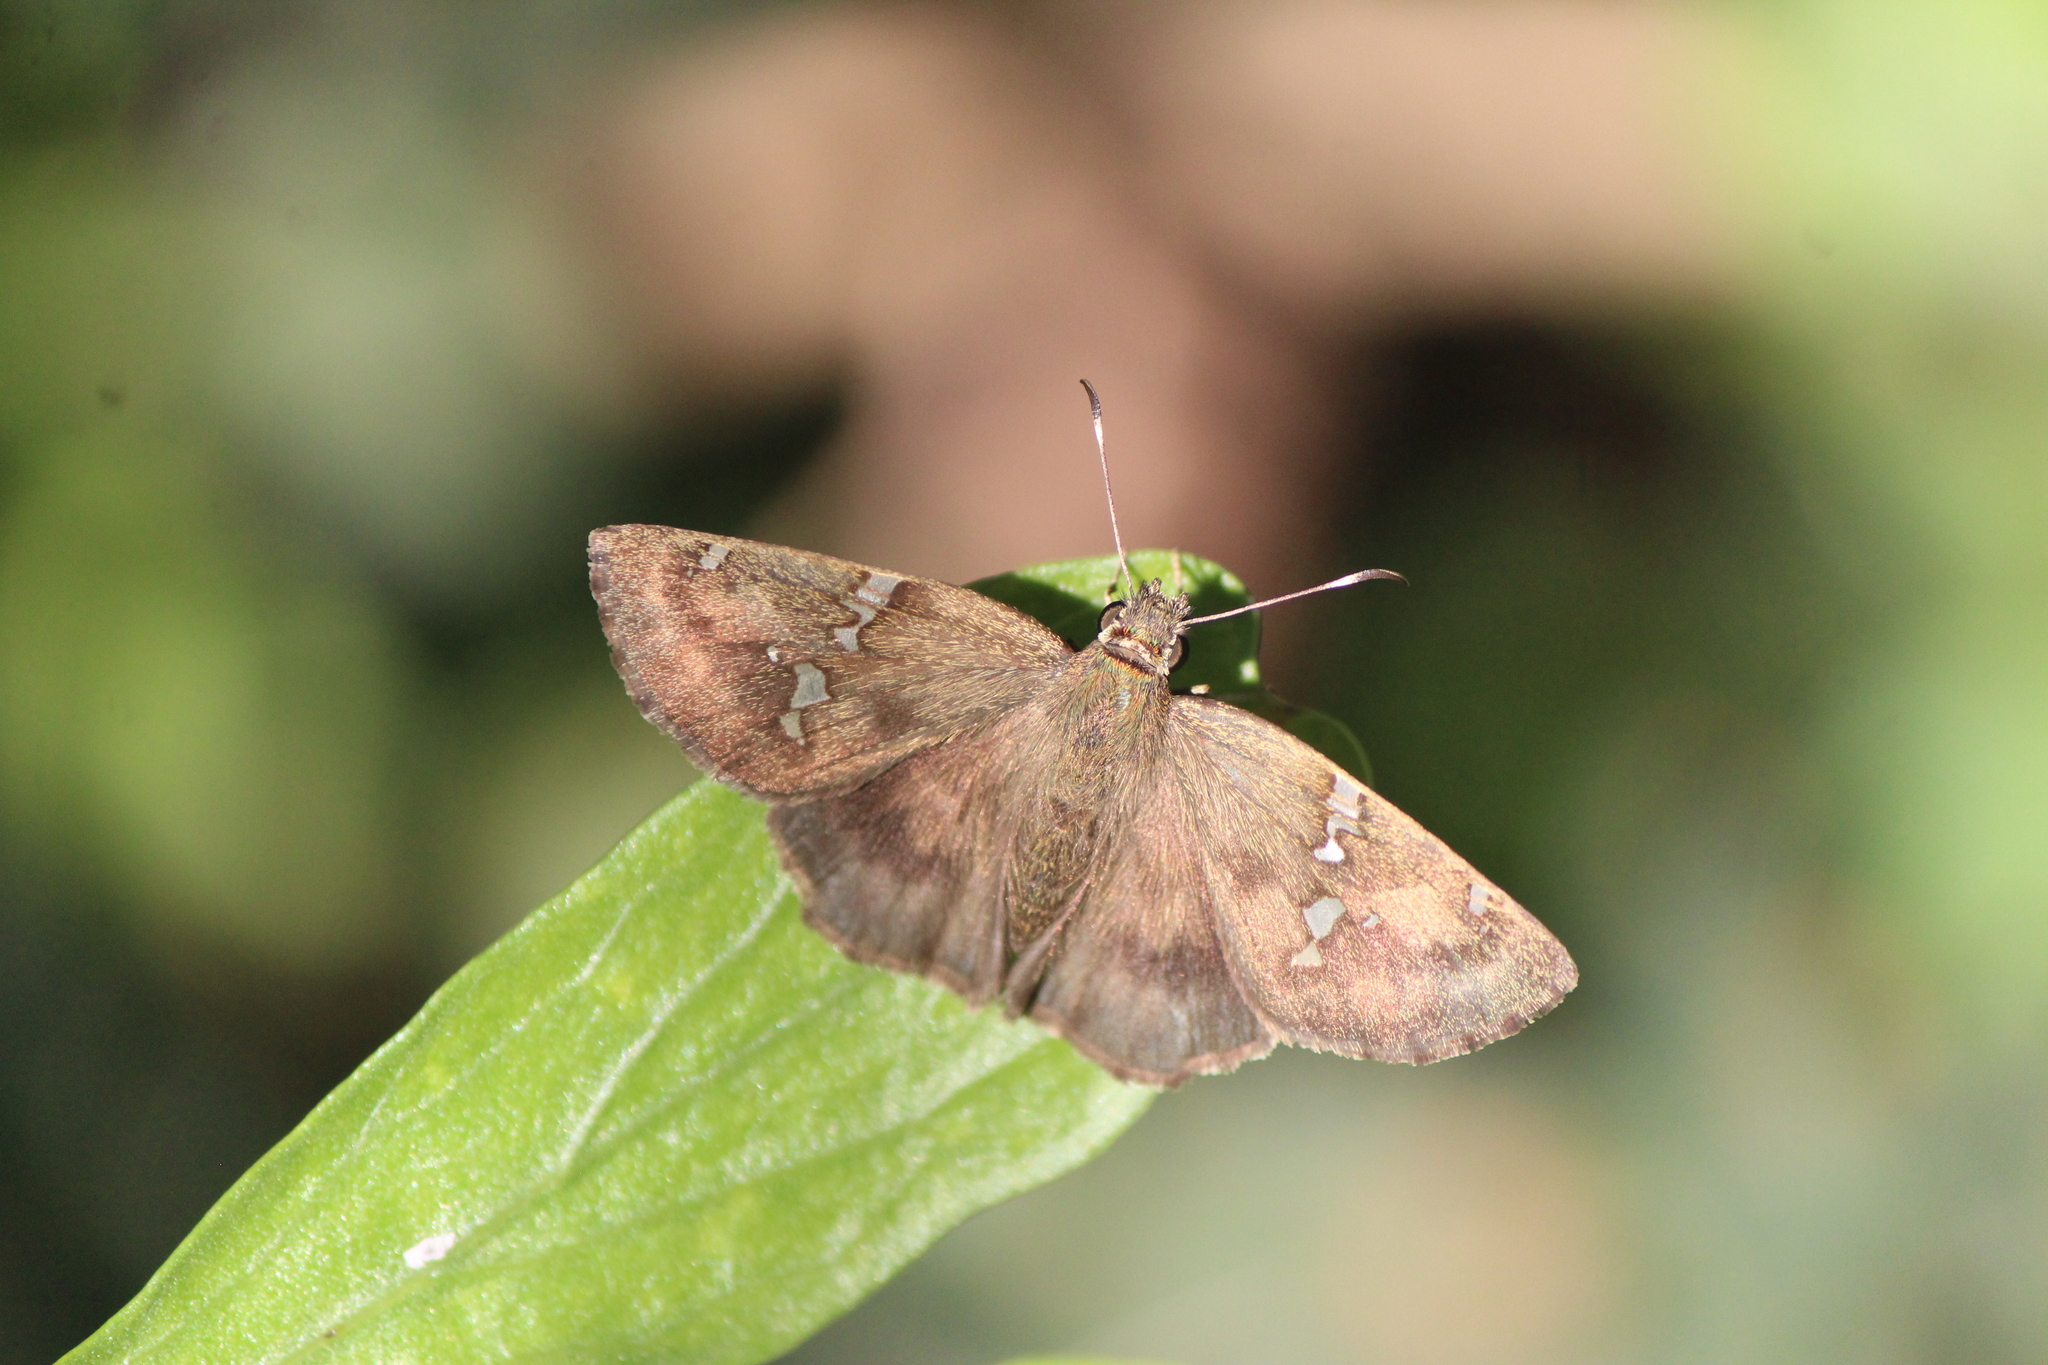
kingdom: Animalia
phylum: Arthropoda
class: Insecta
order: Lepidoptera
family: Hesperiidae
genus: Autochton
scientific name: Autochton potrillo
